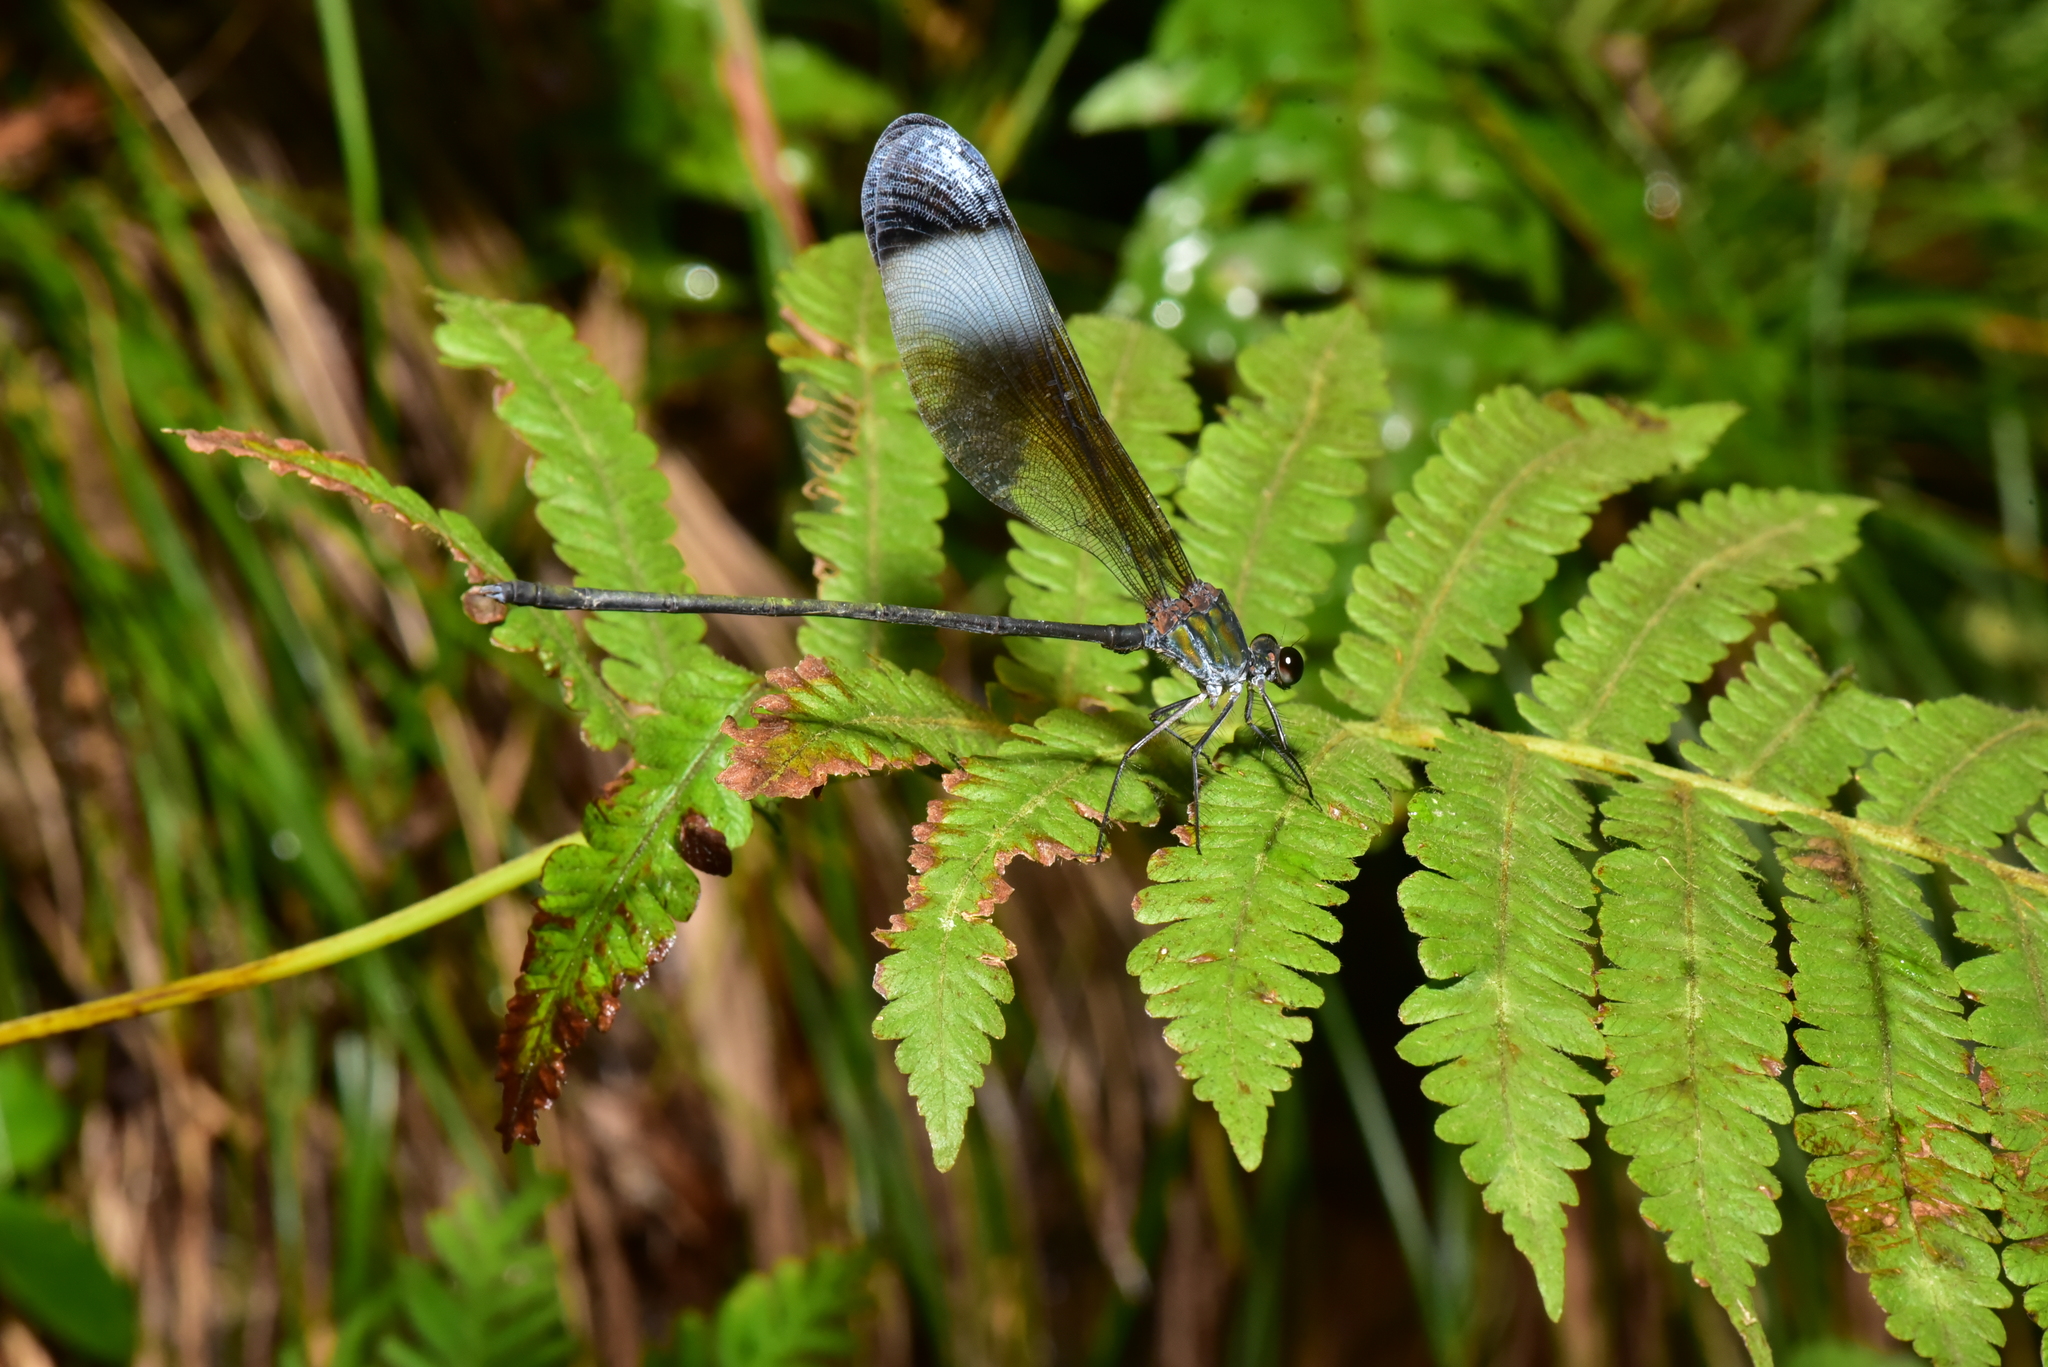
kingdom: Animalia
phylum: Arthropoda
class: Insecta
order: Odonata
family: Calopterygidae
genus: Psolodesmus
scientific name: Psolodesmus mandarinus
